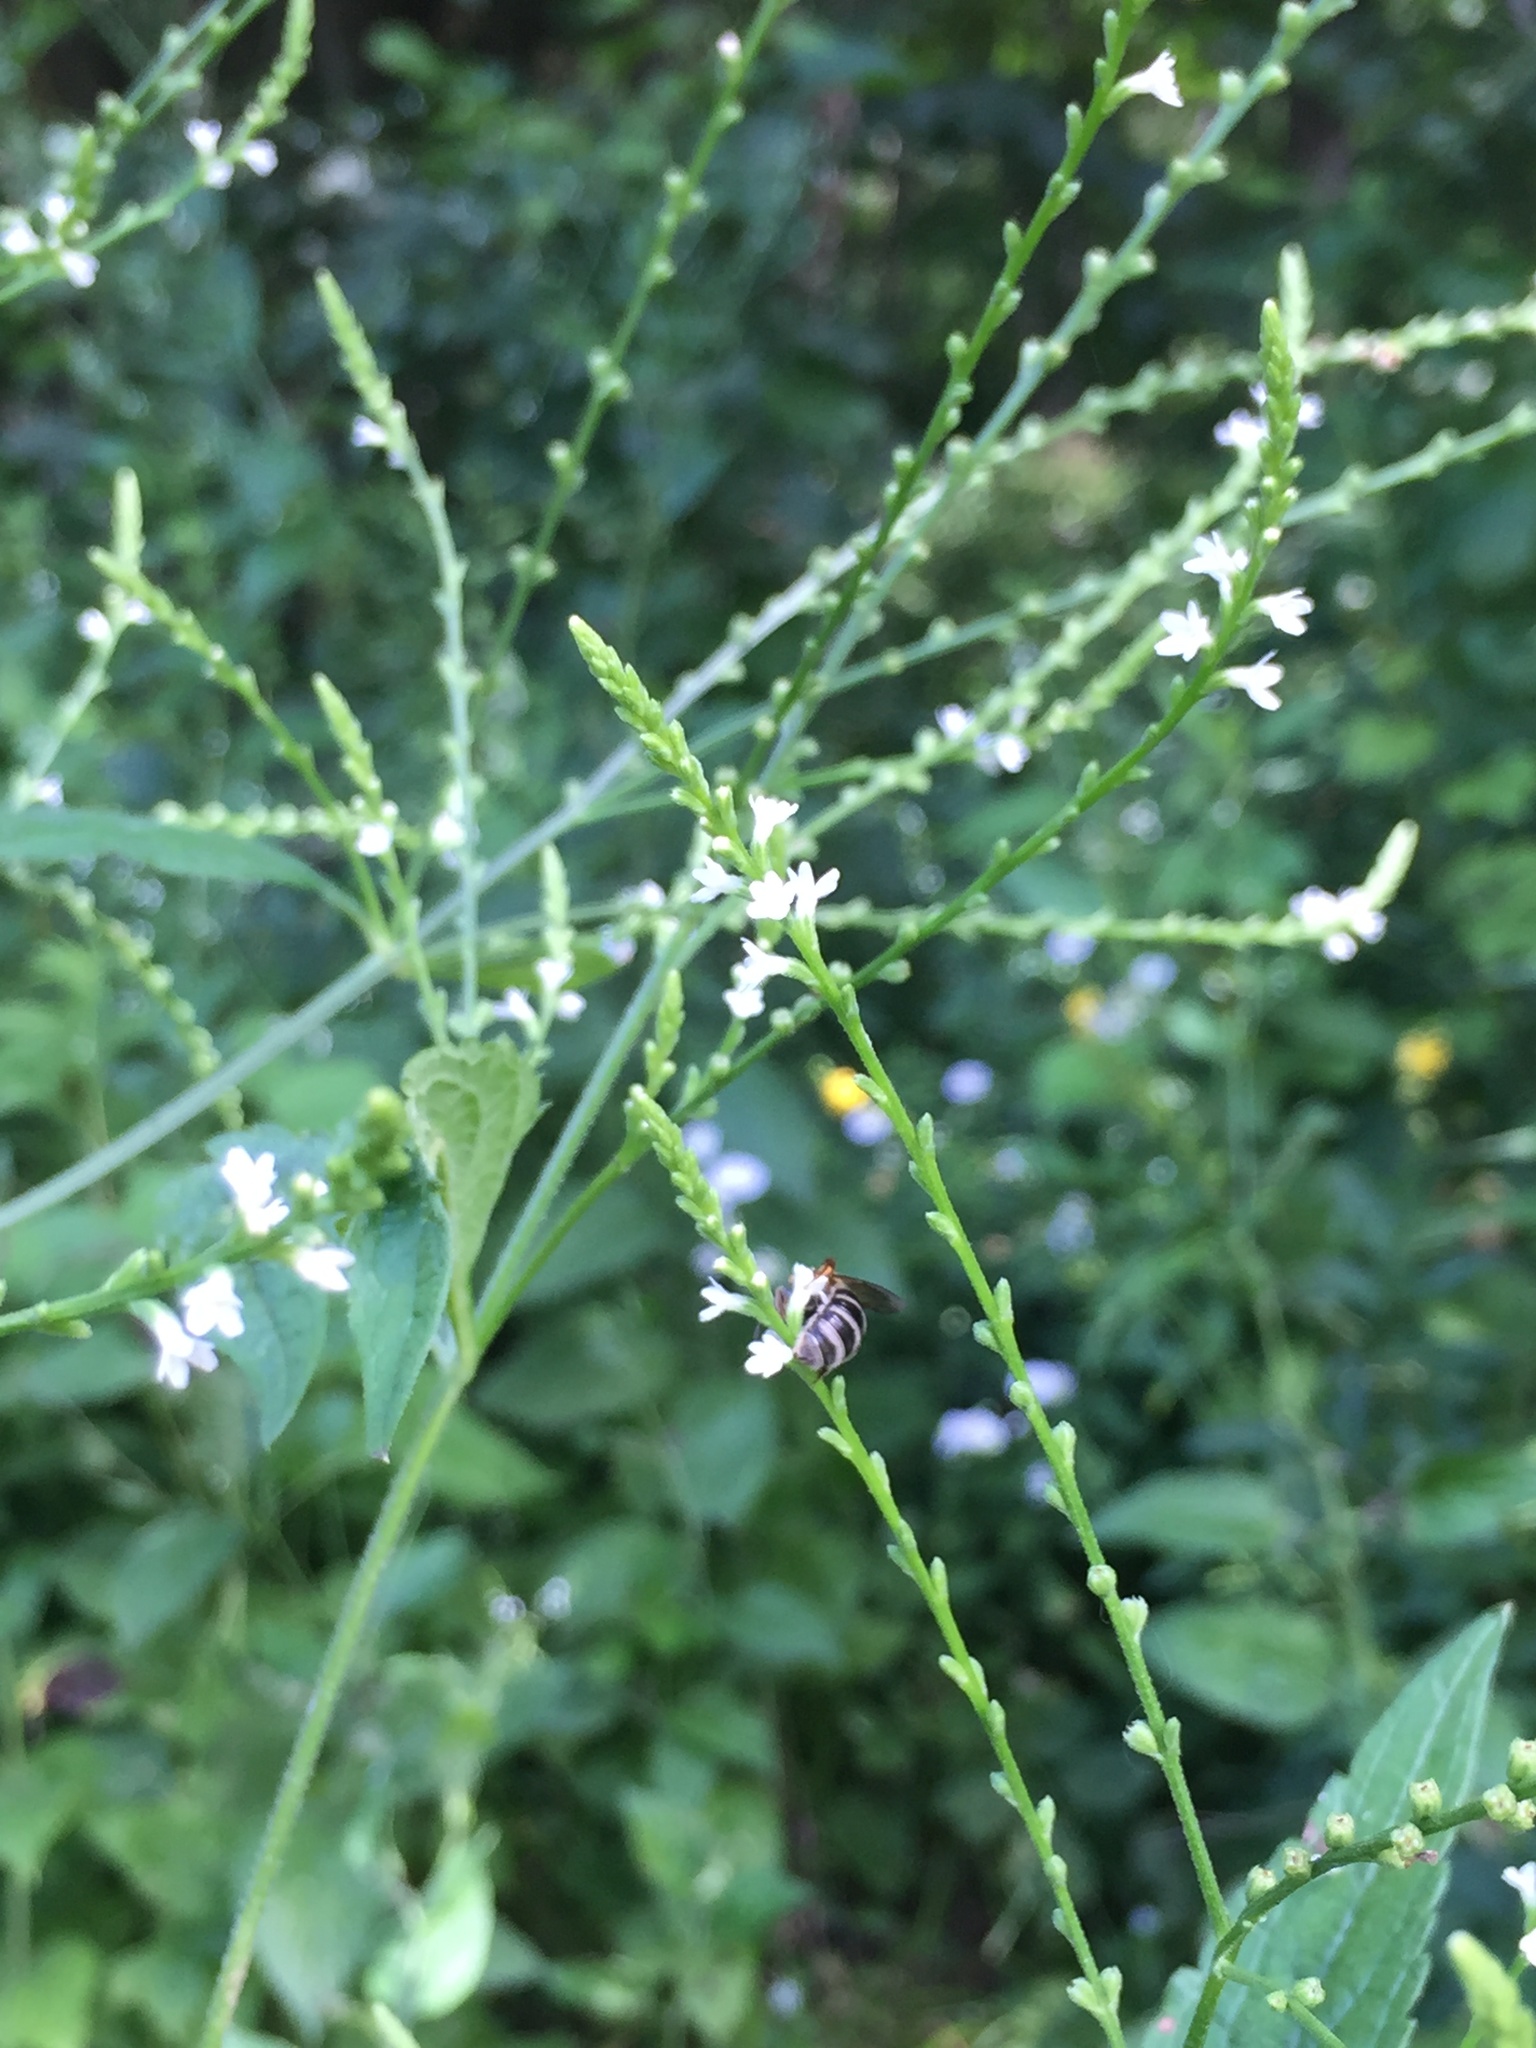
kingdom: Plantae
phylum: Tracheophyta
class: Magnoliopsida
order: Lamiales
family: Verbenaceae
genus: Verbena
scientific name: Verbena urticifolia
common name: Nettle-leaved vervain
